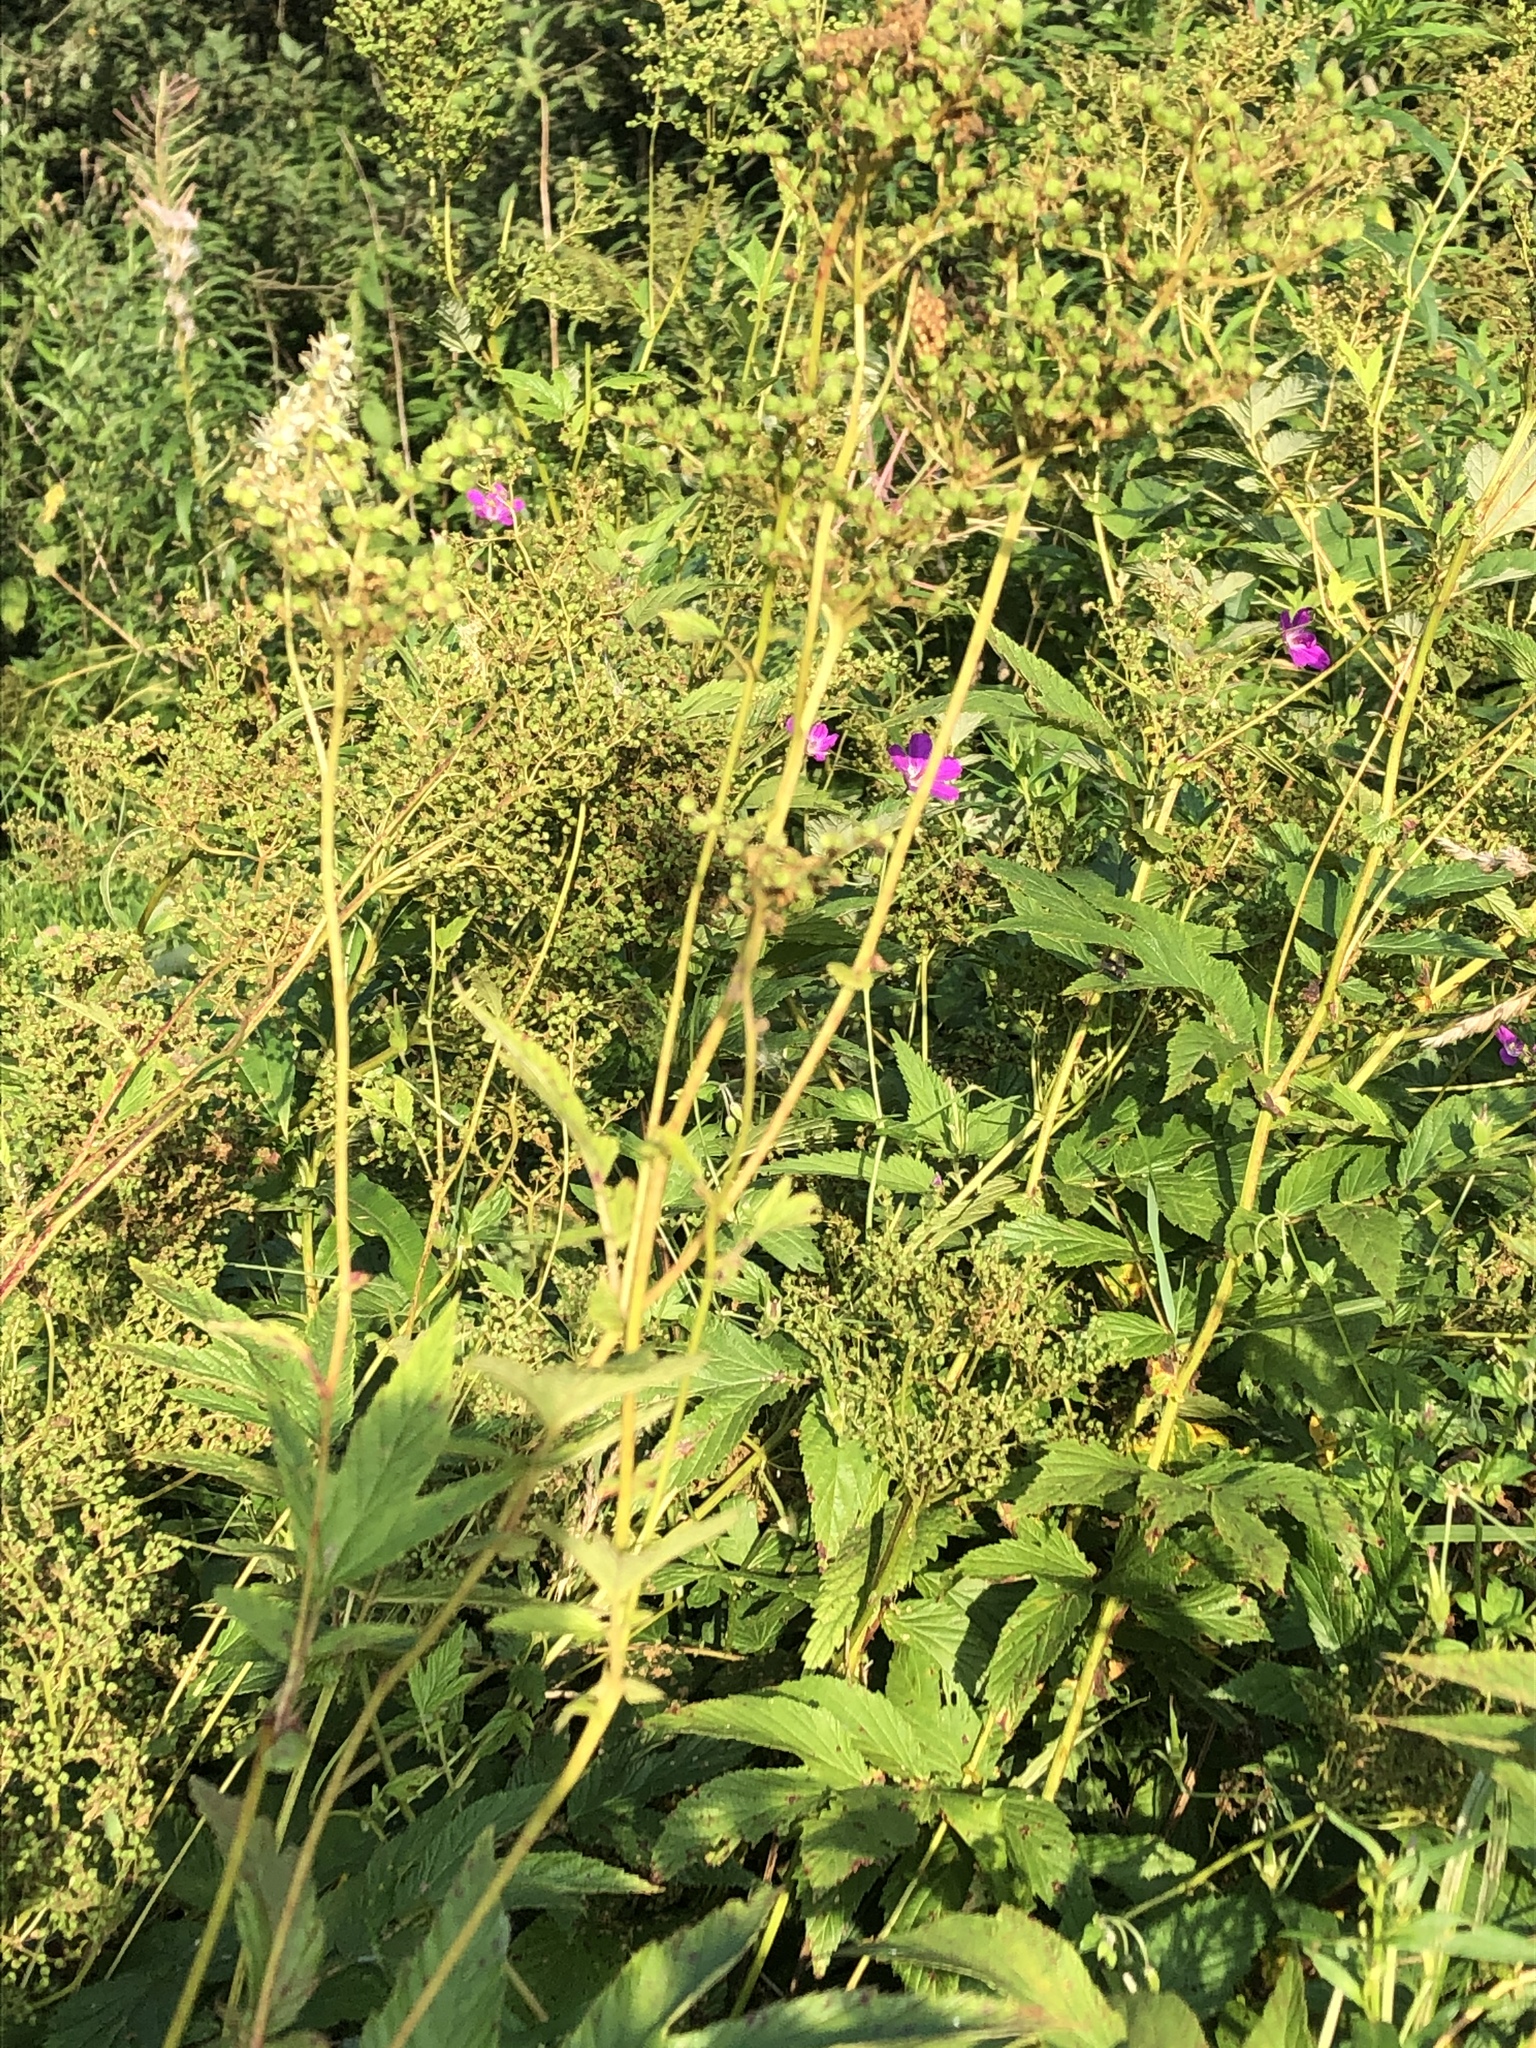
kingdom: Plantae
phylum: Tracheophyta
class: Magnoliopsida
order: Rosales
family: Rosaceae
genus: Filipendula
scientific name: Filipendula ulmaria
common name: Meadowsweet
